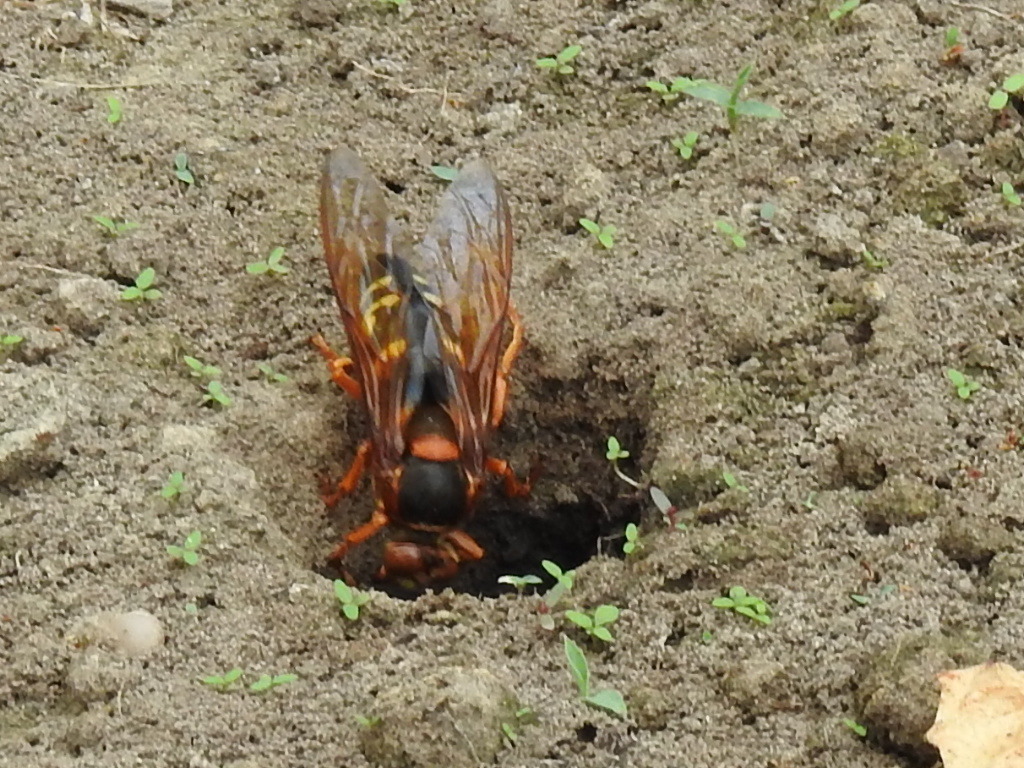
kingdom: Animalia
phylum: Arthropoda
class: Insecta
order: Hymenoptera
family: Crabronidae
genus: Sphecius
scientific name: Sphecius speciosus
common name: Cicada killer
